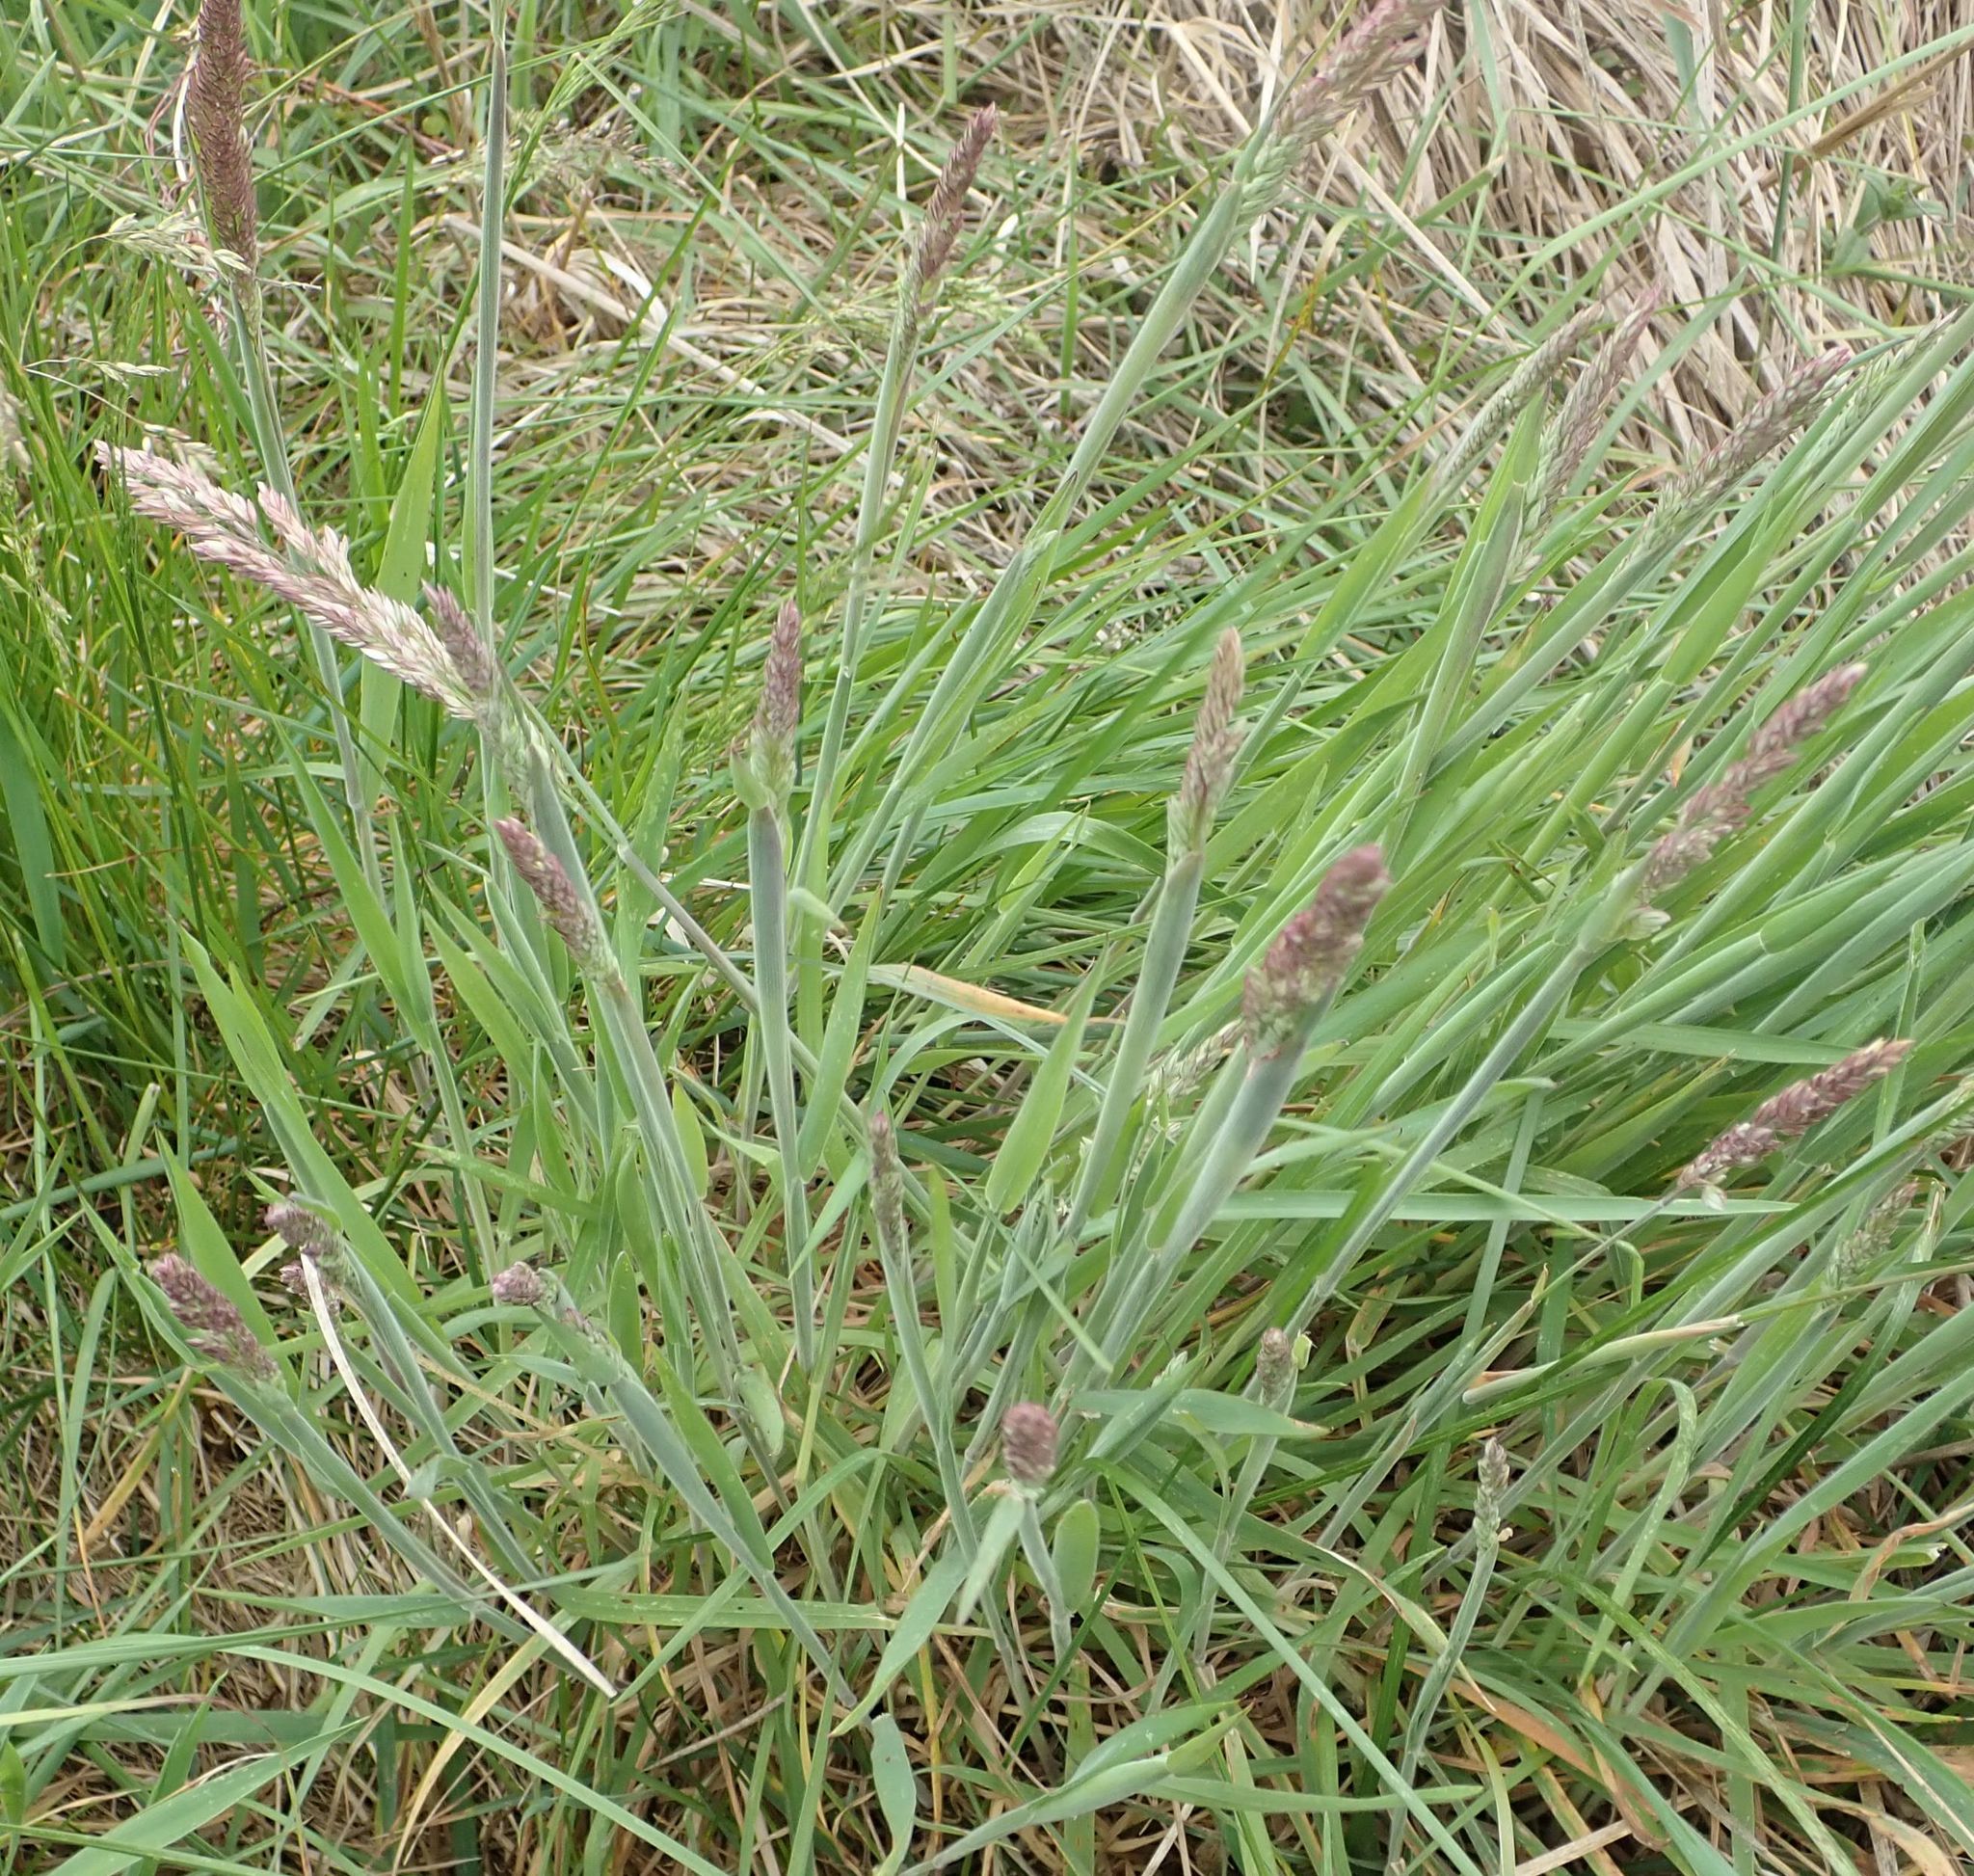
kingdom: Plantae
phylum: Tracheophyta
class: Liliopsida
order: Poales
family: Poaceae
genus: Holcus
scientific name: Holcus lanatus
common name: Yorkshire-fog
